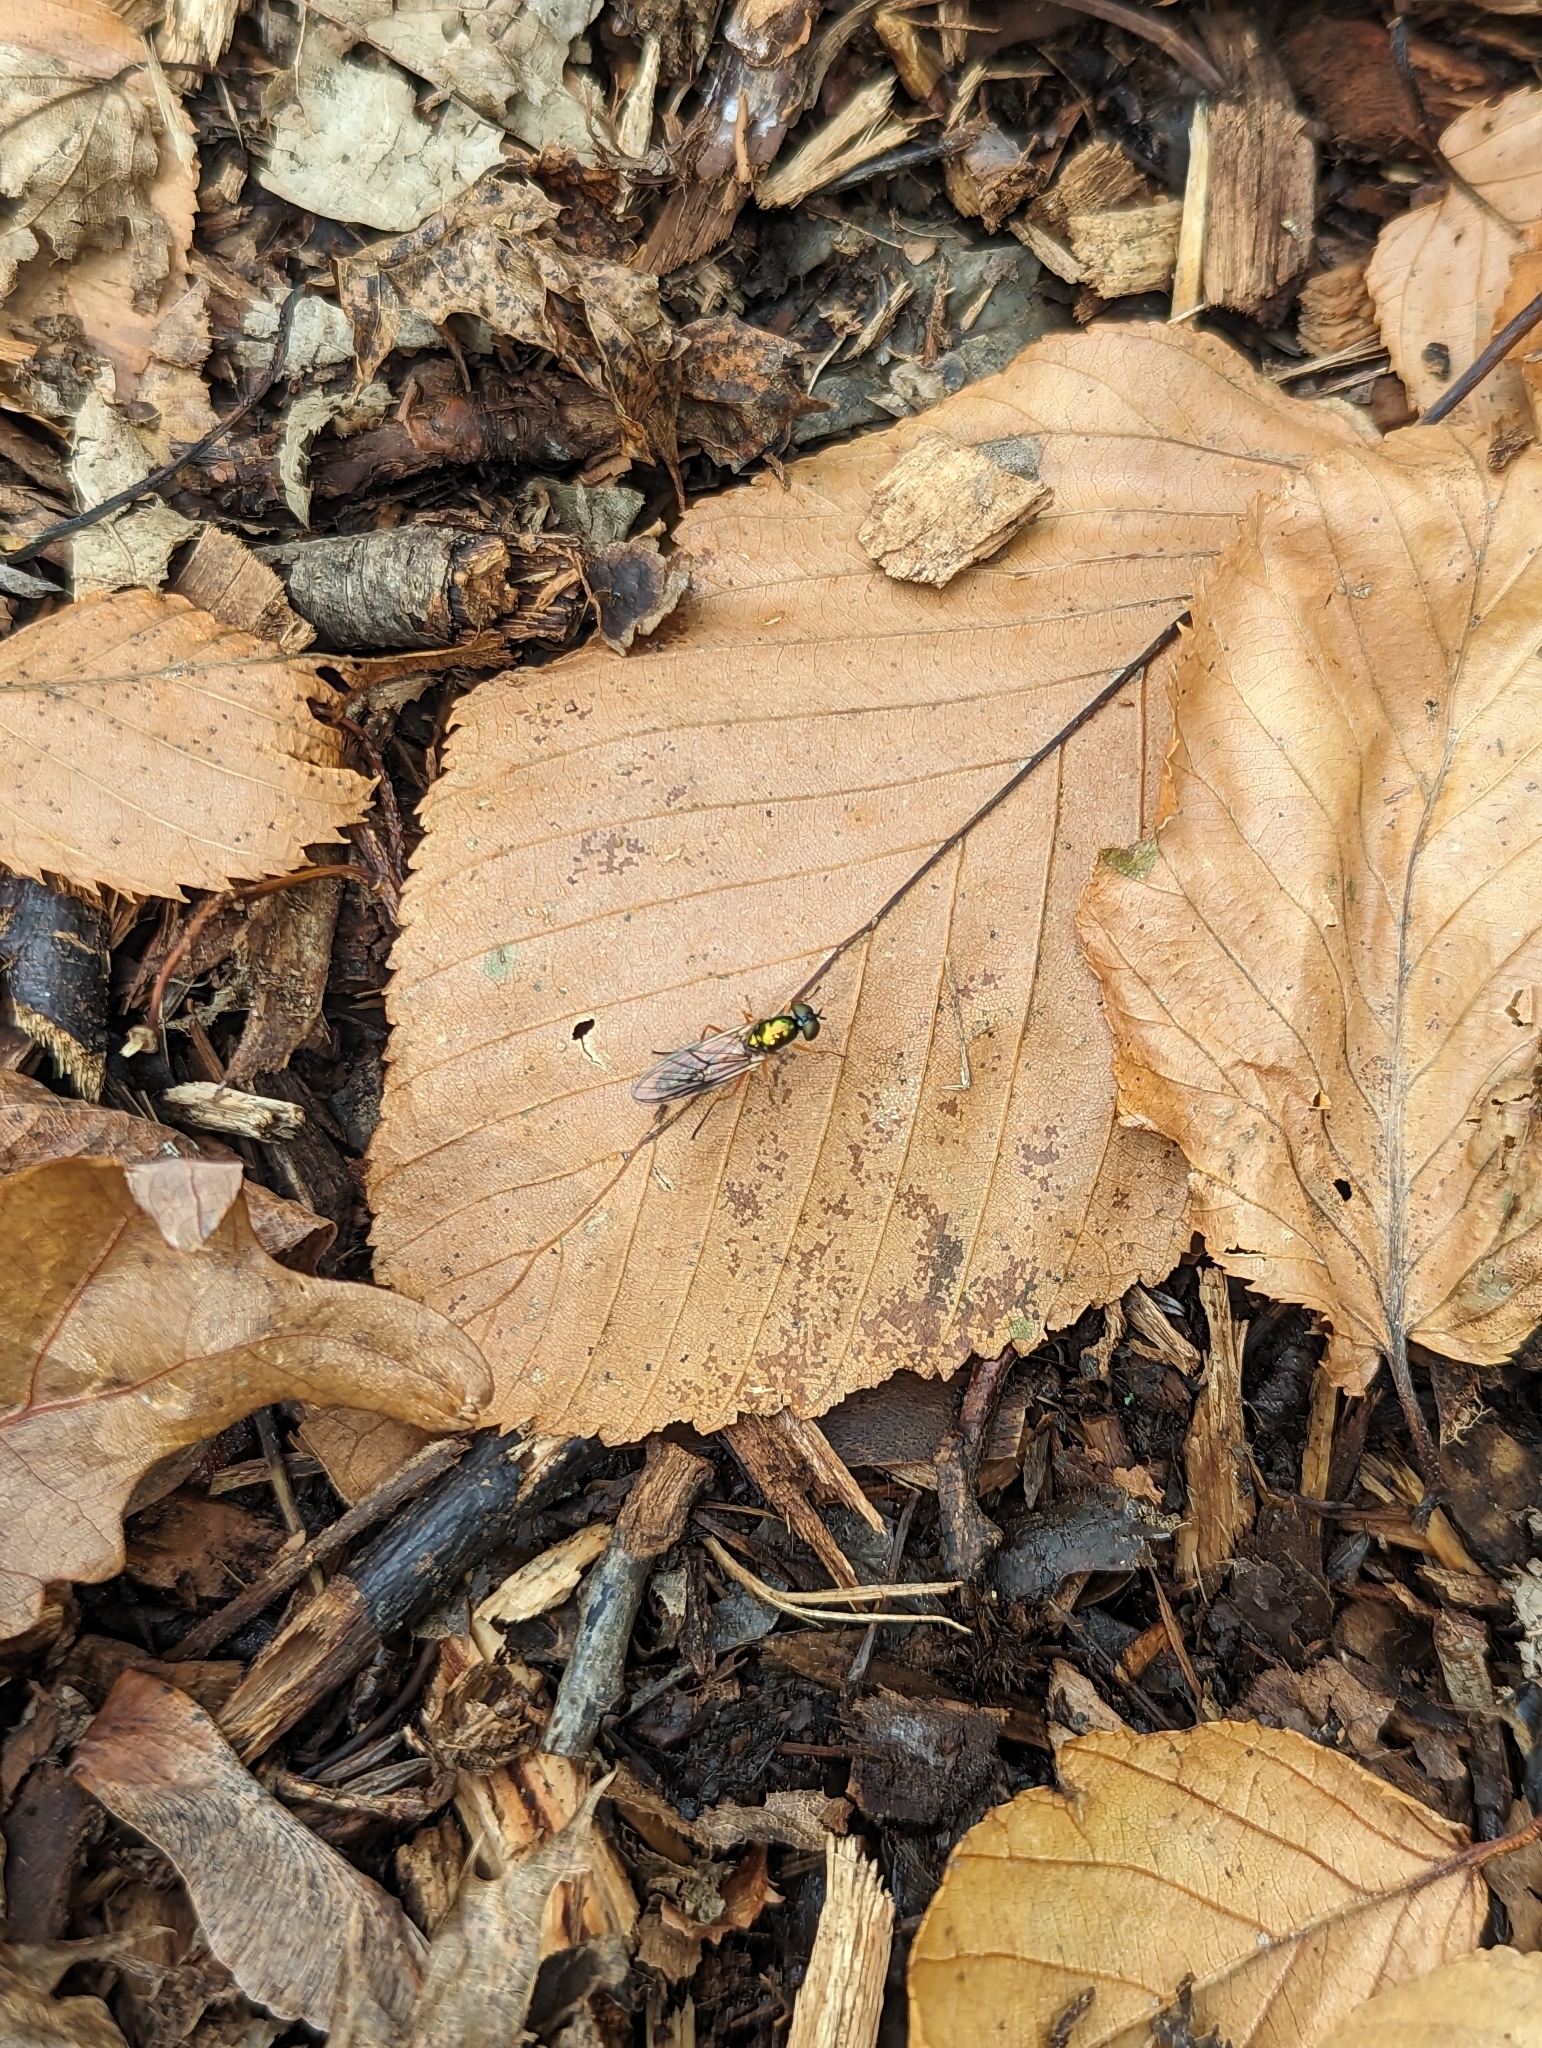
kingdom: Animalia
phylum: Arthropoda
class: Insecta
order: Diptera
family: Stratiomyidae
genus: Sargus
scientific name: Sargus bipunctatus
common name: Twin-spot centurion
